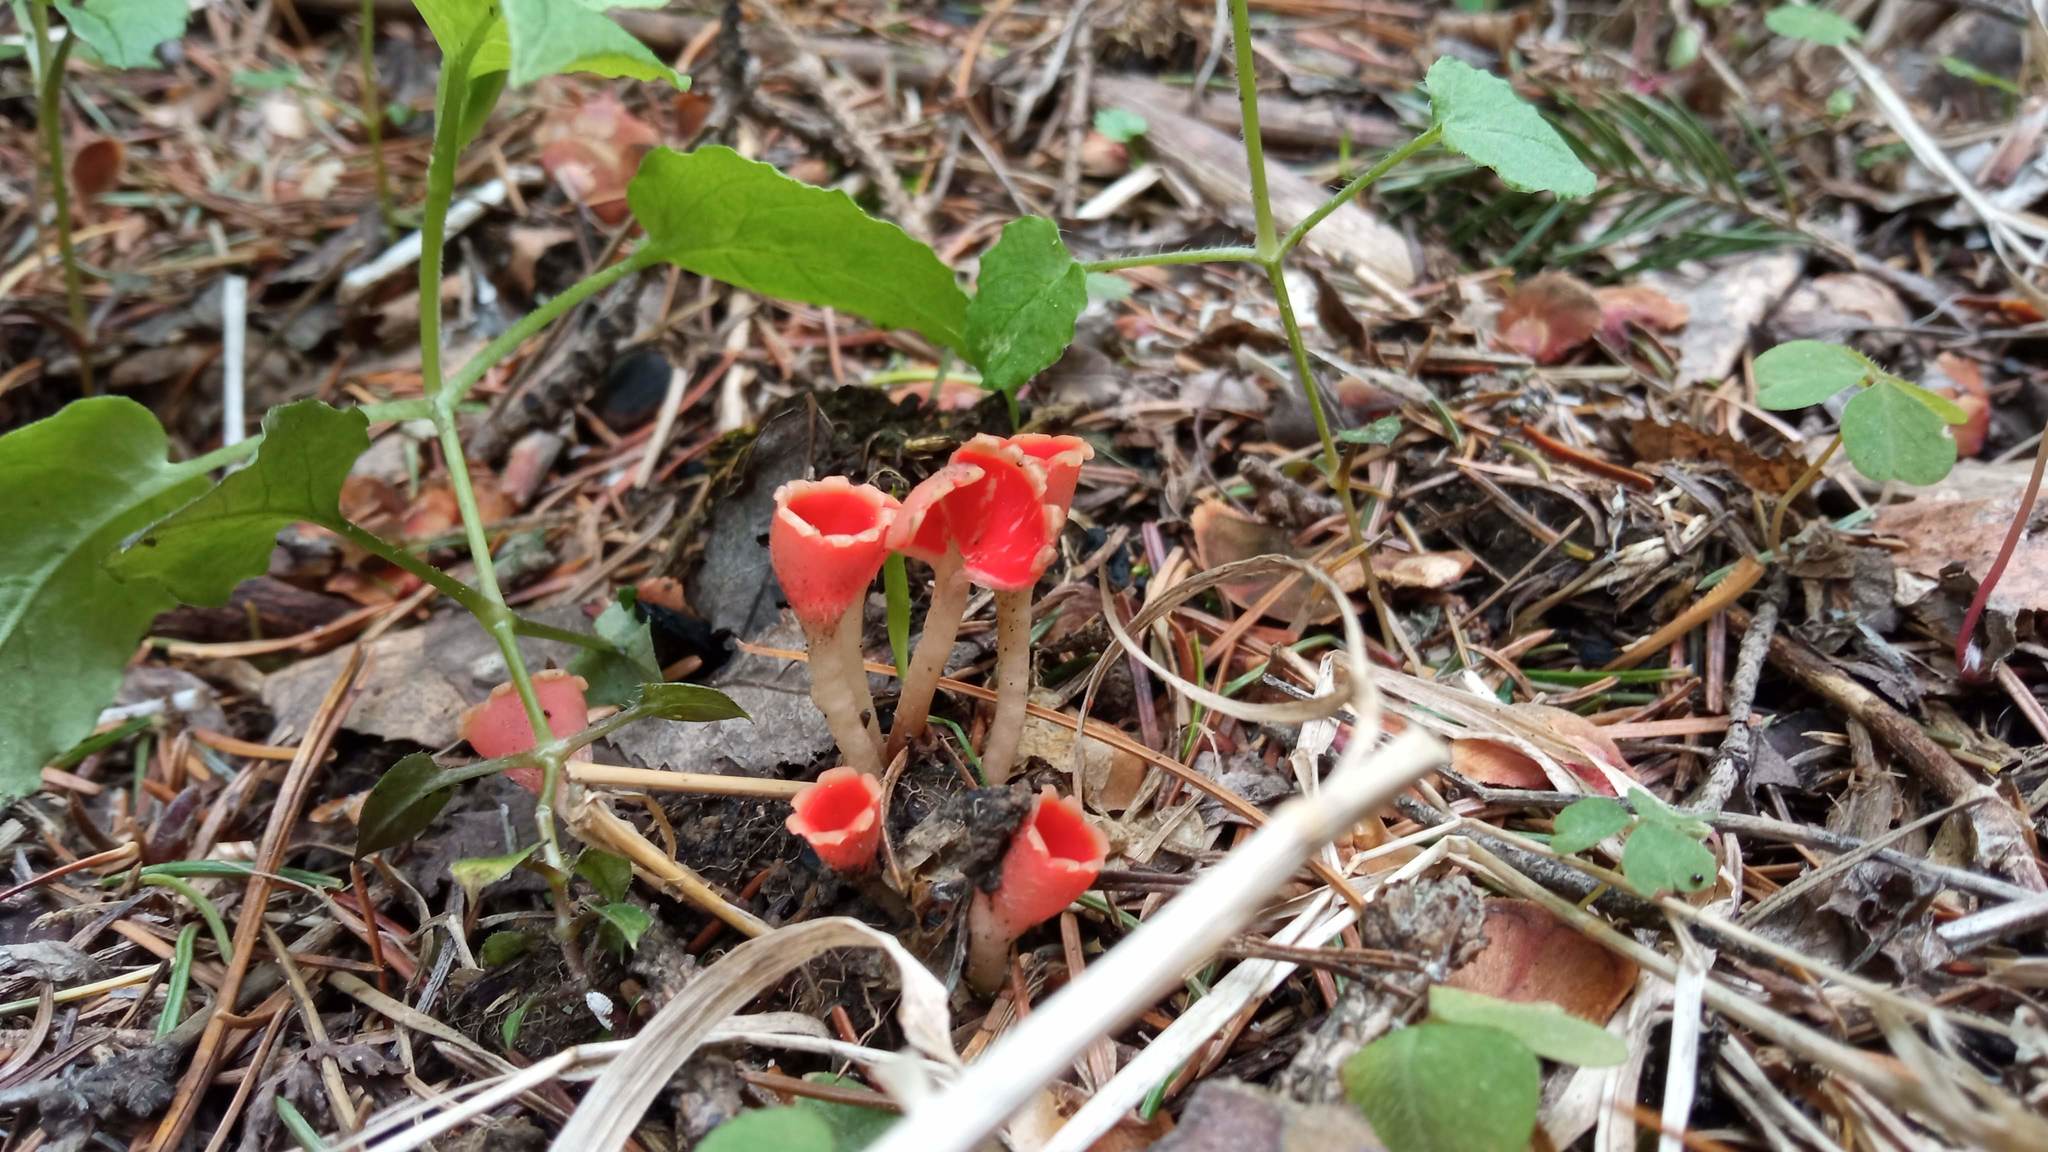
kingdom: Fungi
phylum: Ascomycota
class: Pezizomycetes
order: Pezizales
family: Sarcoscyphaceae
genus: Microstoma
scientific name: Microstoma protractum
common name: Rosy goblet
